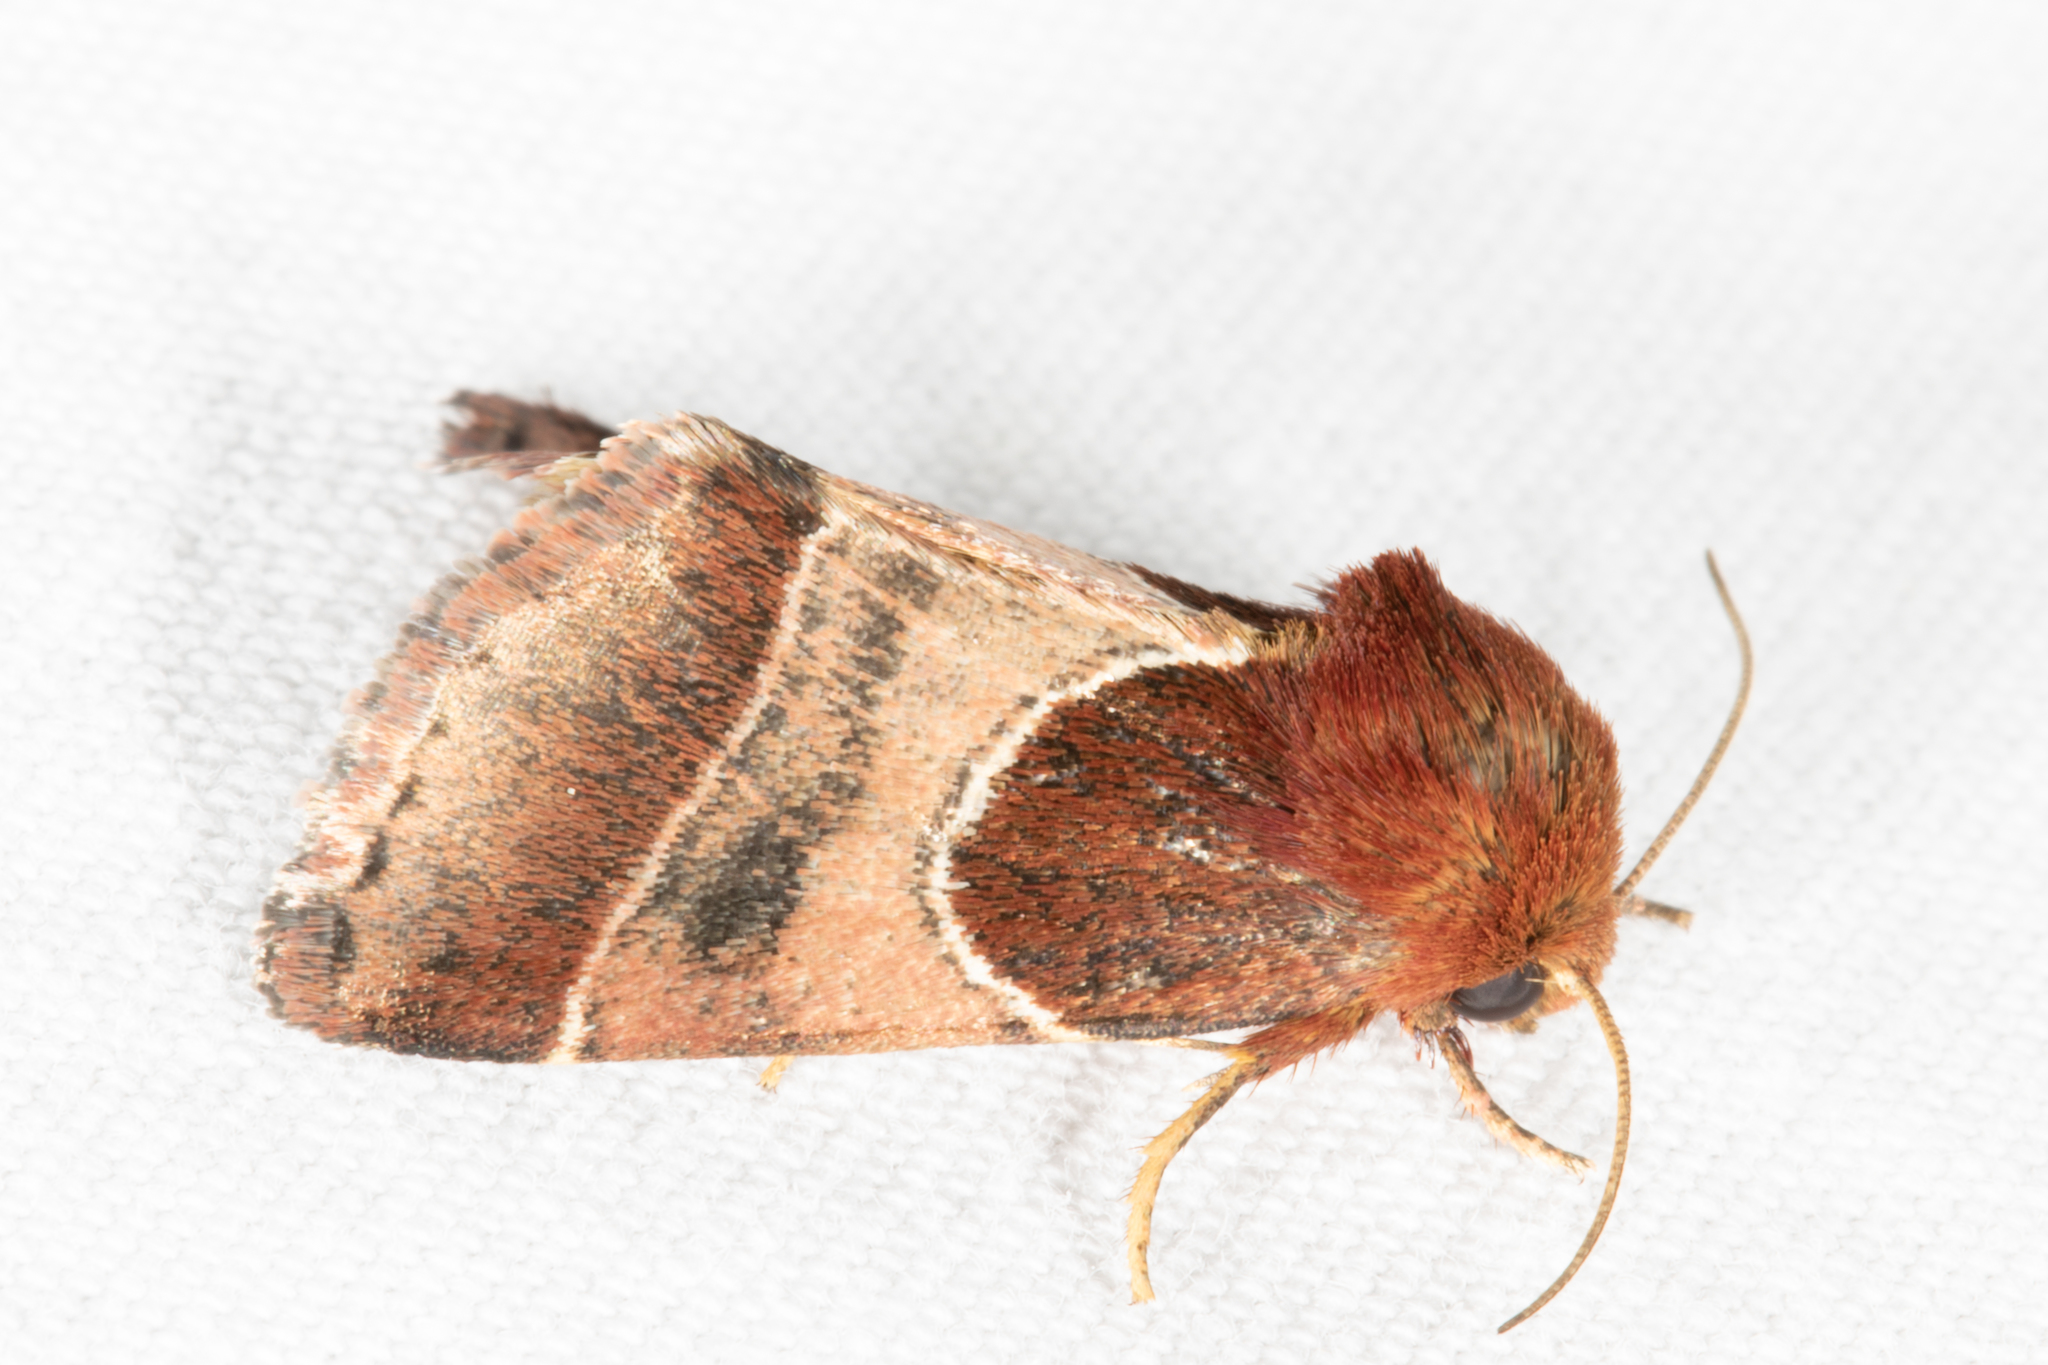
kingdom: Animalia
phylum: Arthropoda
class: Insecta
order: Lepidoptera
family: Noctuidae
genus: Schinia
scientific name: Schinia arcigera
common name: Arcigera flower moth
